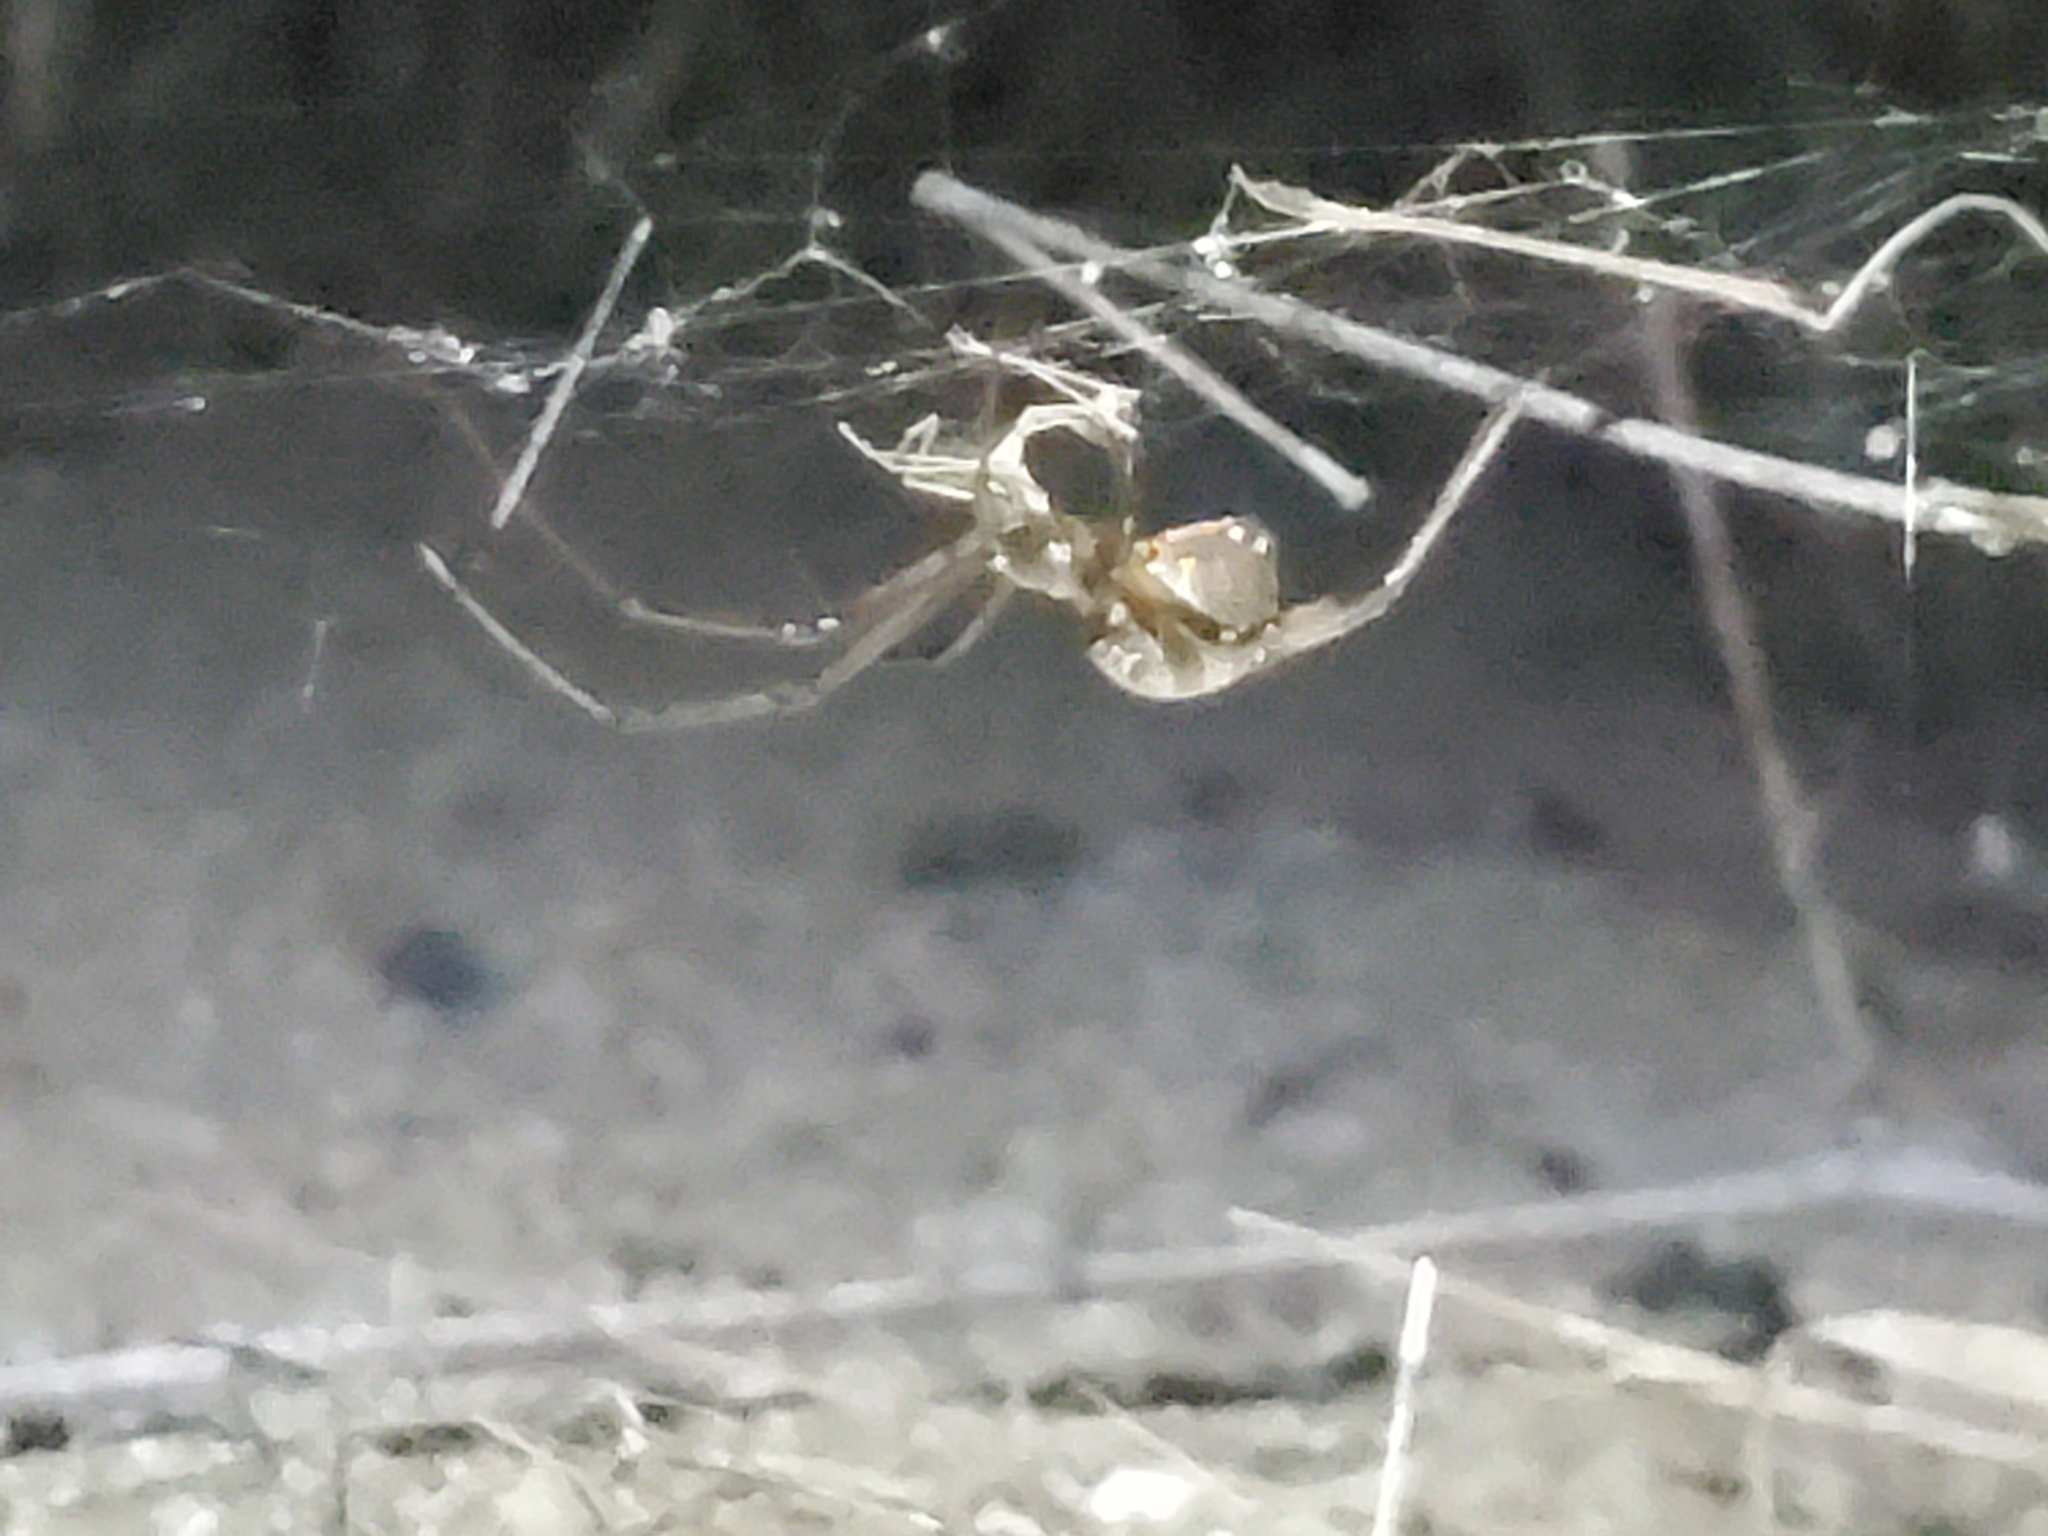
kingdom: Animalia
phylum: Arthropoda
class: Arachnida
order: Araneae
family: Theridiidae
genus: Latrodectus
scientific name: Latrodectus geometricus
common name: Brown widow spider
